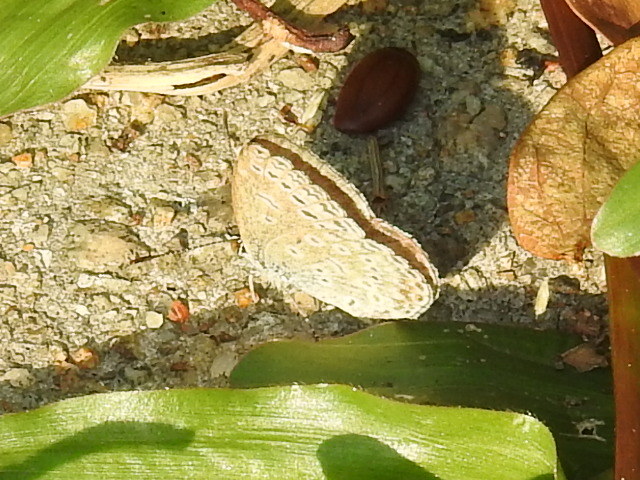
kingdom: Animalia
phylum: Arthropoda
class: Insecta
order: Lepidoptera
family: Lycaenidae
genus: Pseudozizeeria
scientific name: Pseudozizeeria maha
